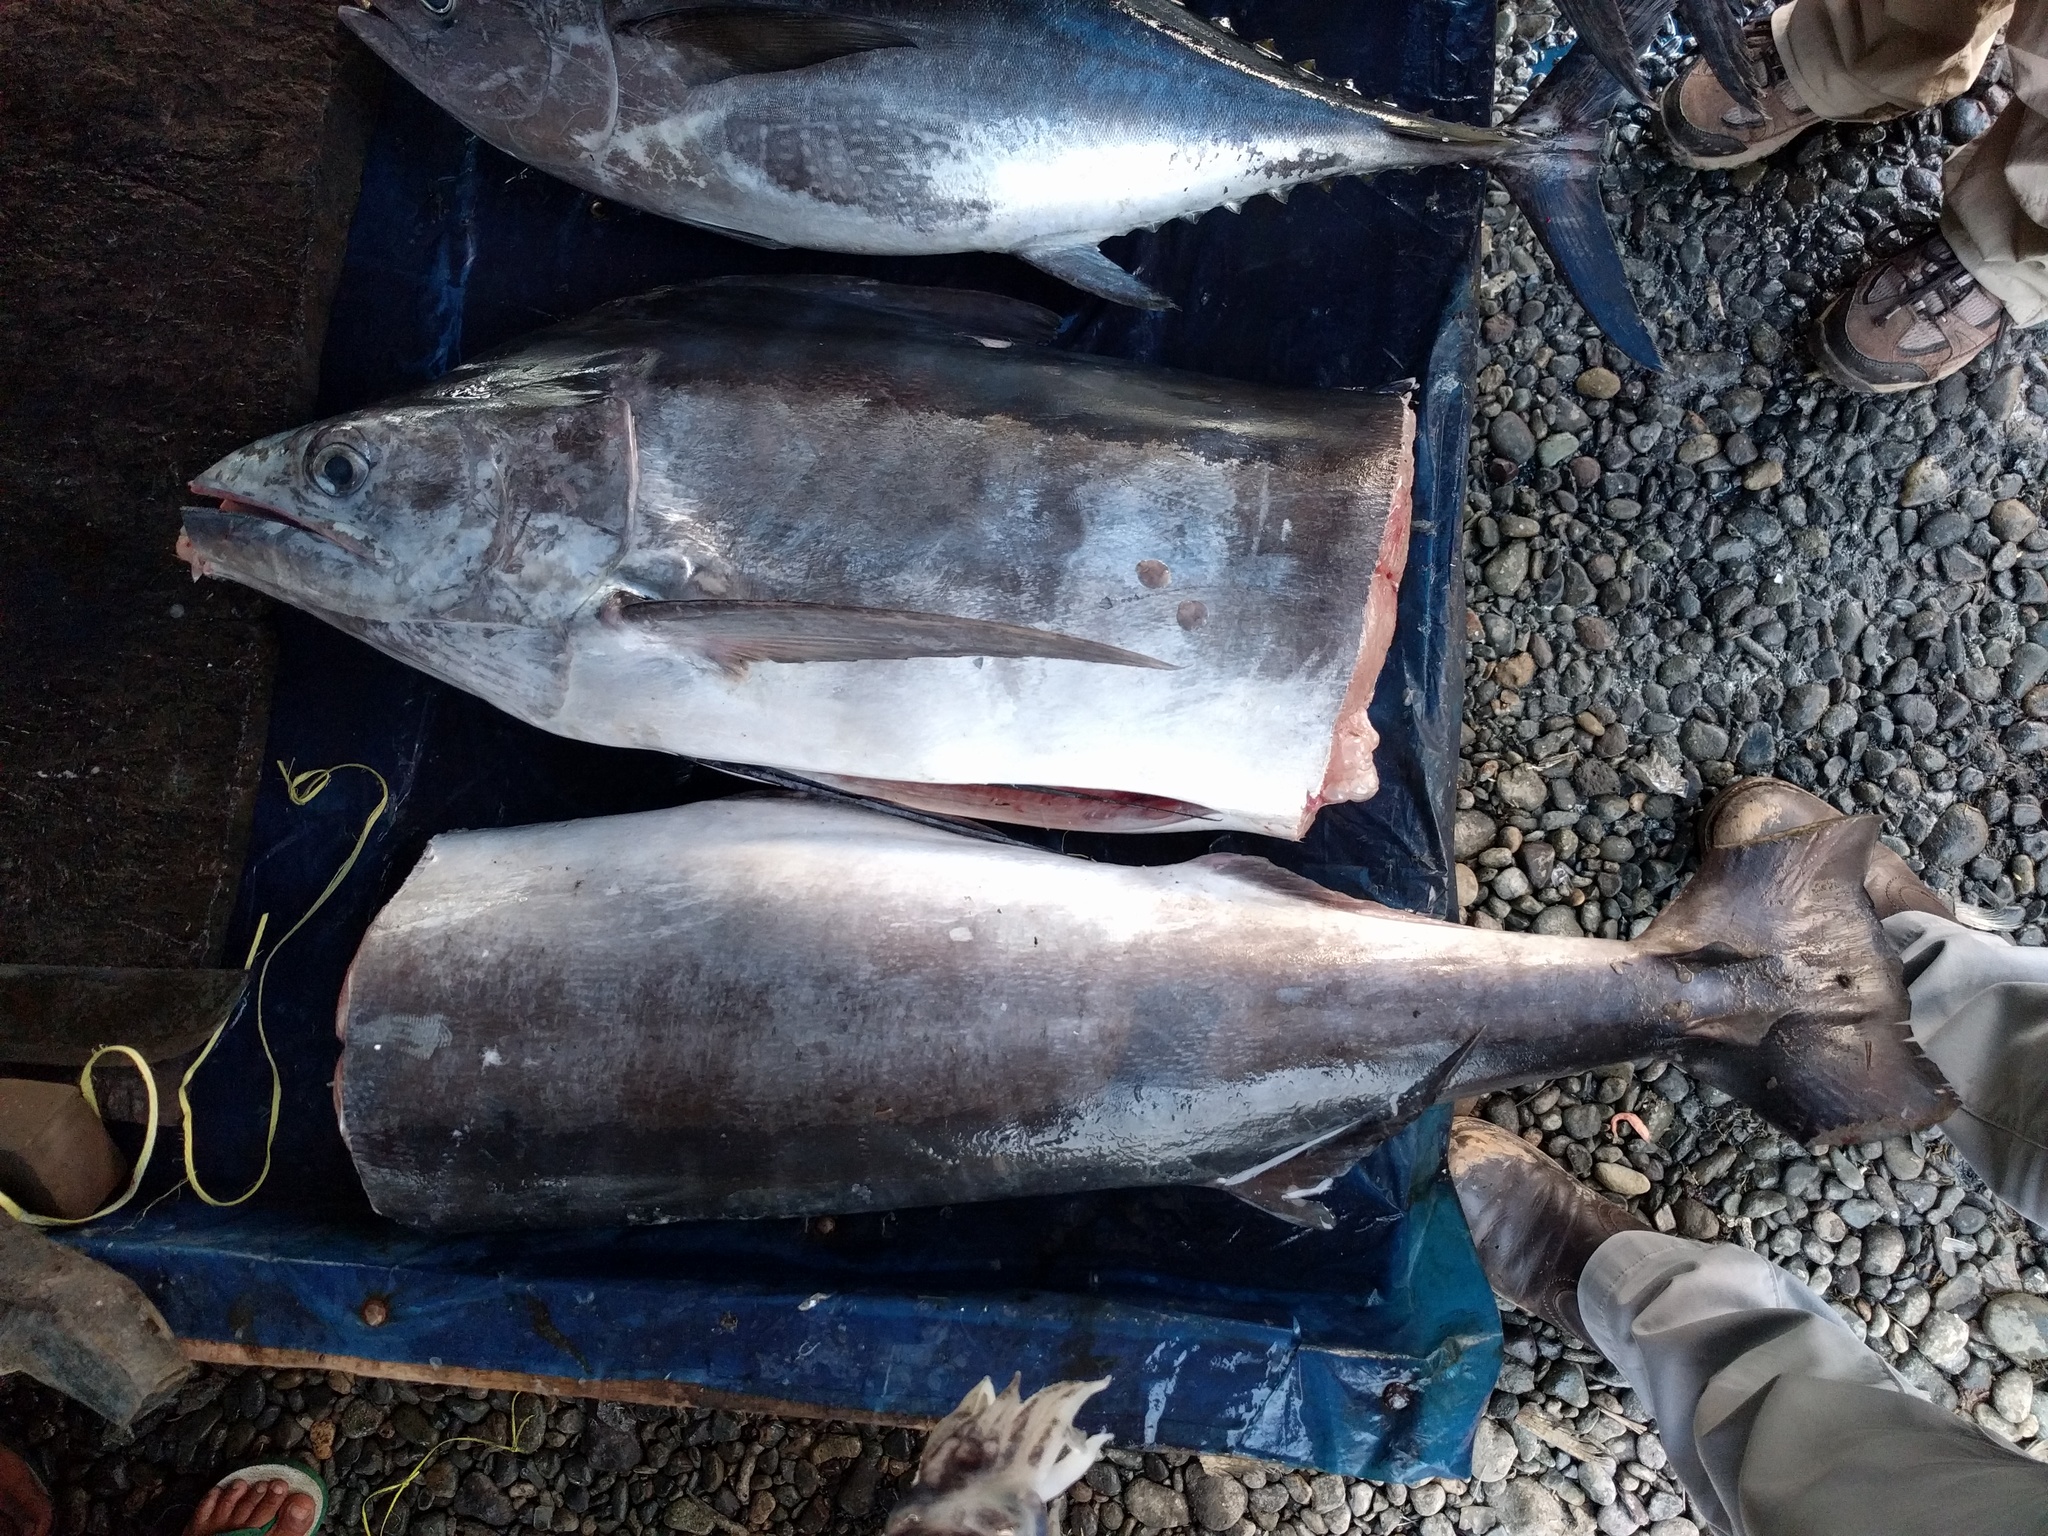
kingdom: Animalia
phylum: Chordata
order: Perciformes
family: Istiophoridae
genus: Makaira
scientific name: Makaira nigricans
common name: Blue marlin
